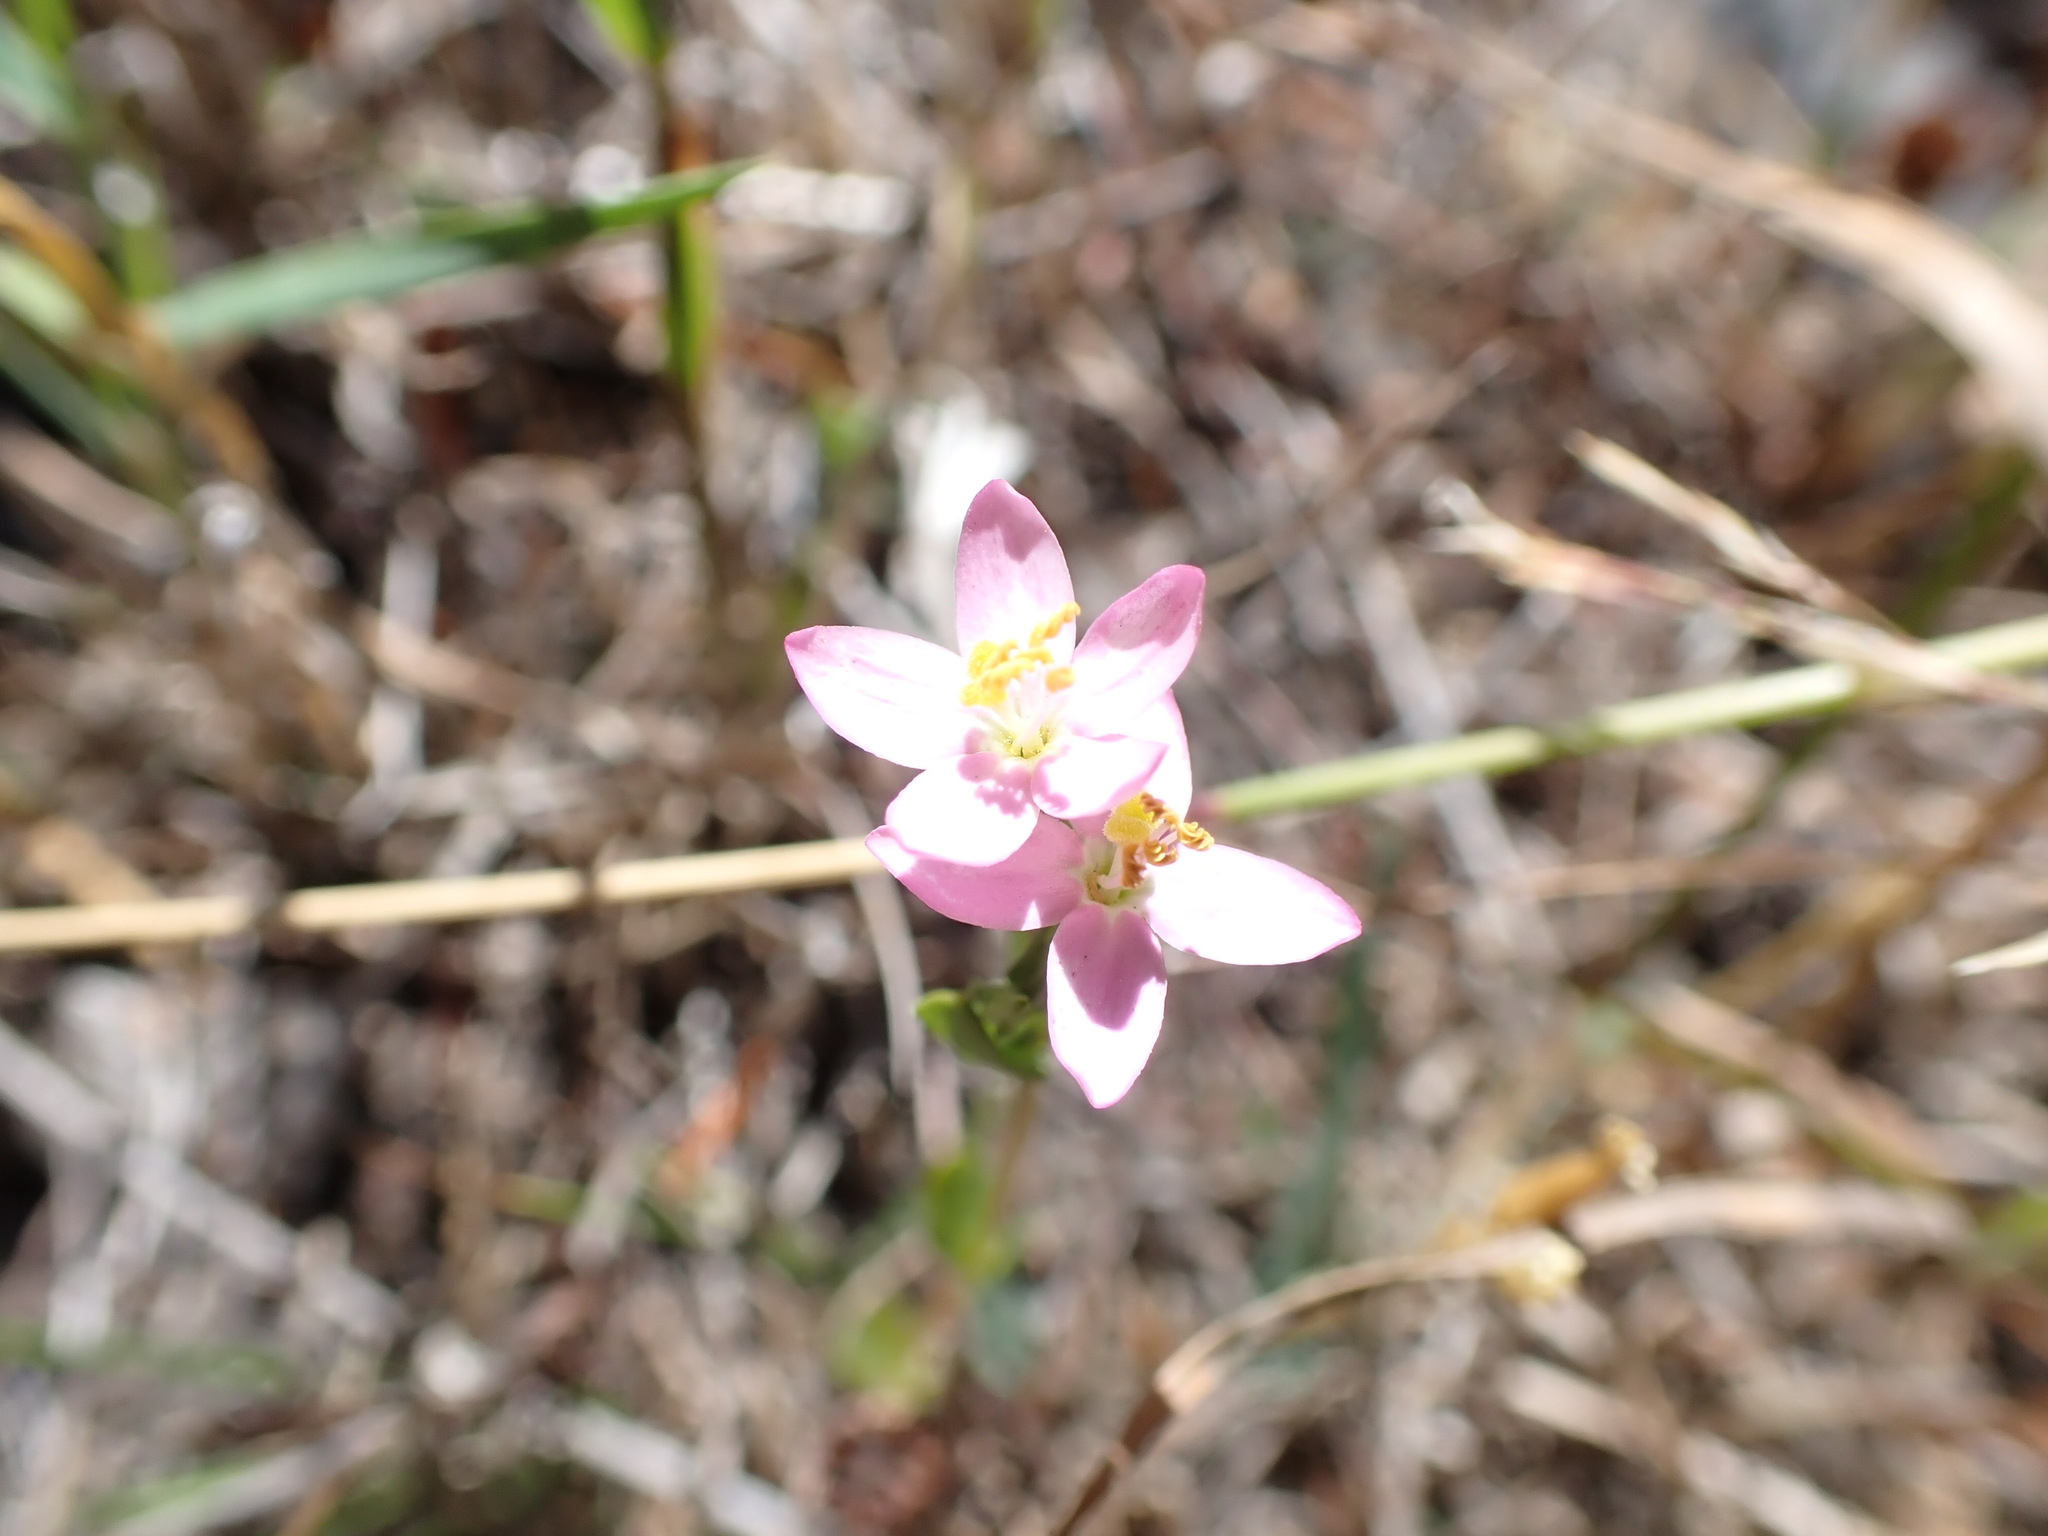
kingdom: Plantae
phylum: Tracheophyta
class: Magnoliopsida
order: Gentianales
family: Gentianaceae
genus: Centaurium
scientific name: Centaurium erythraea
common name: Common centaury
